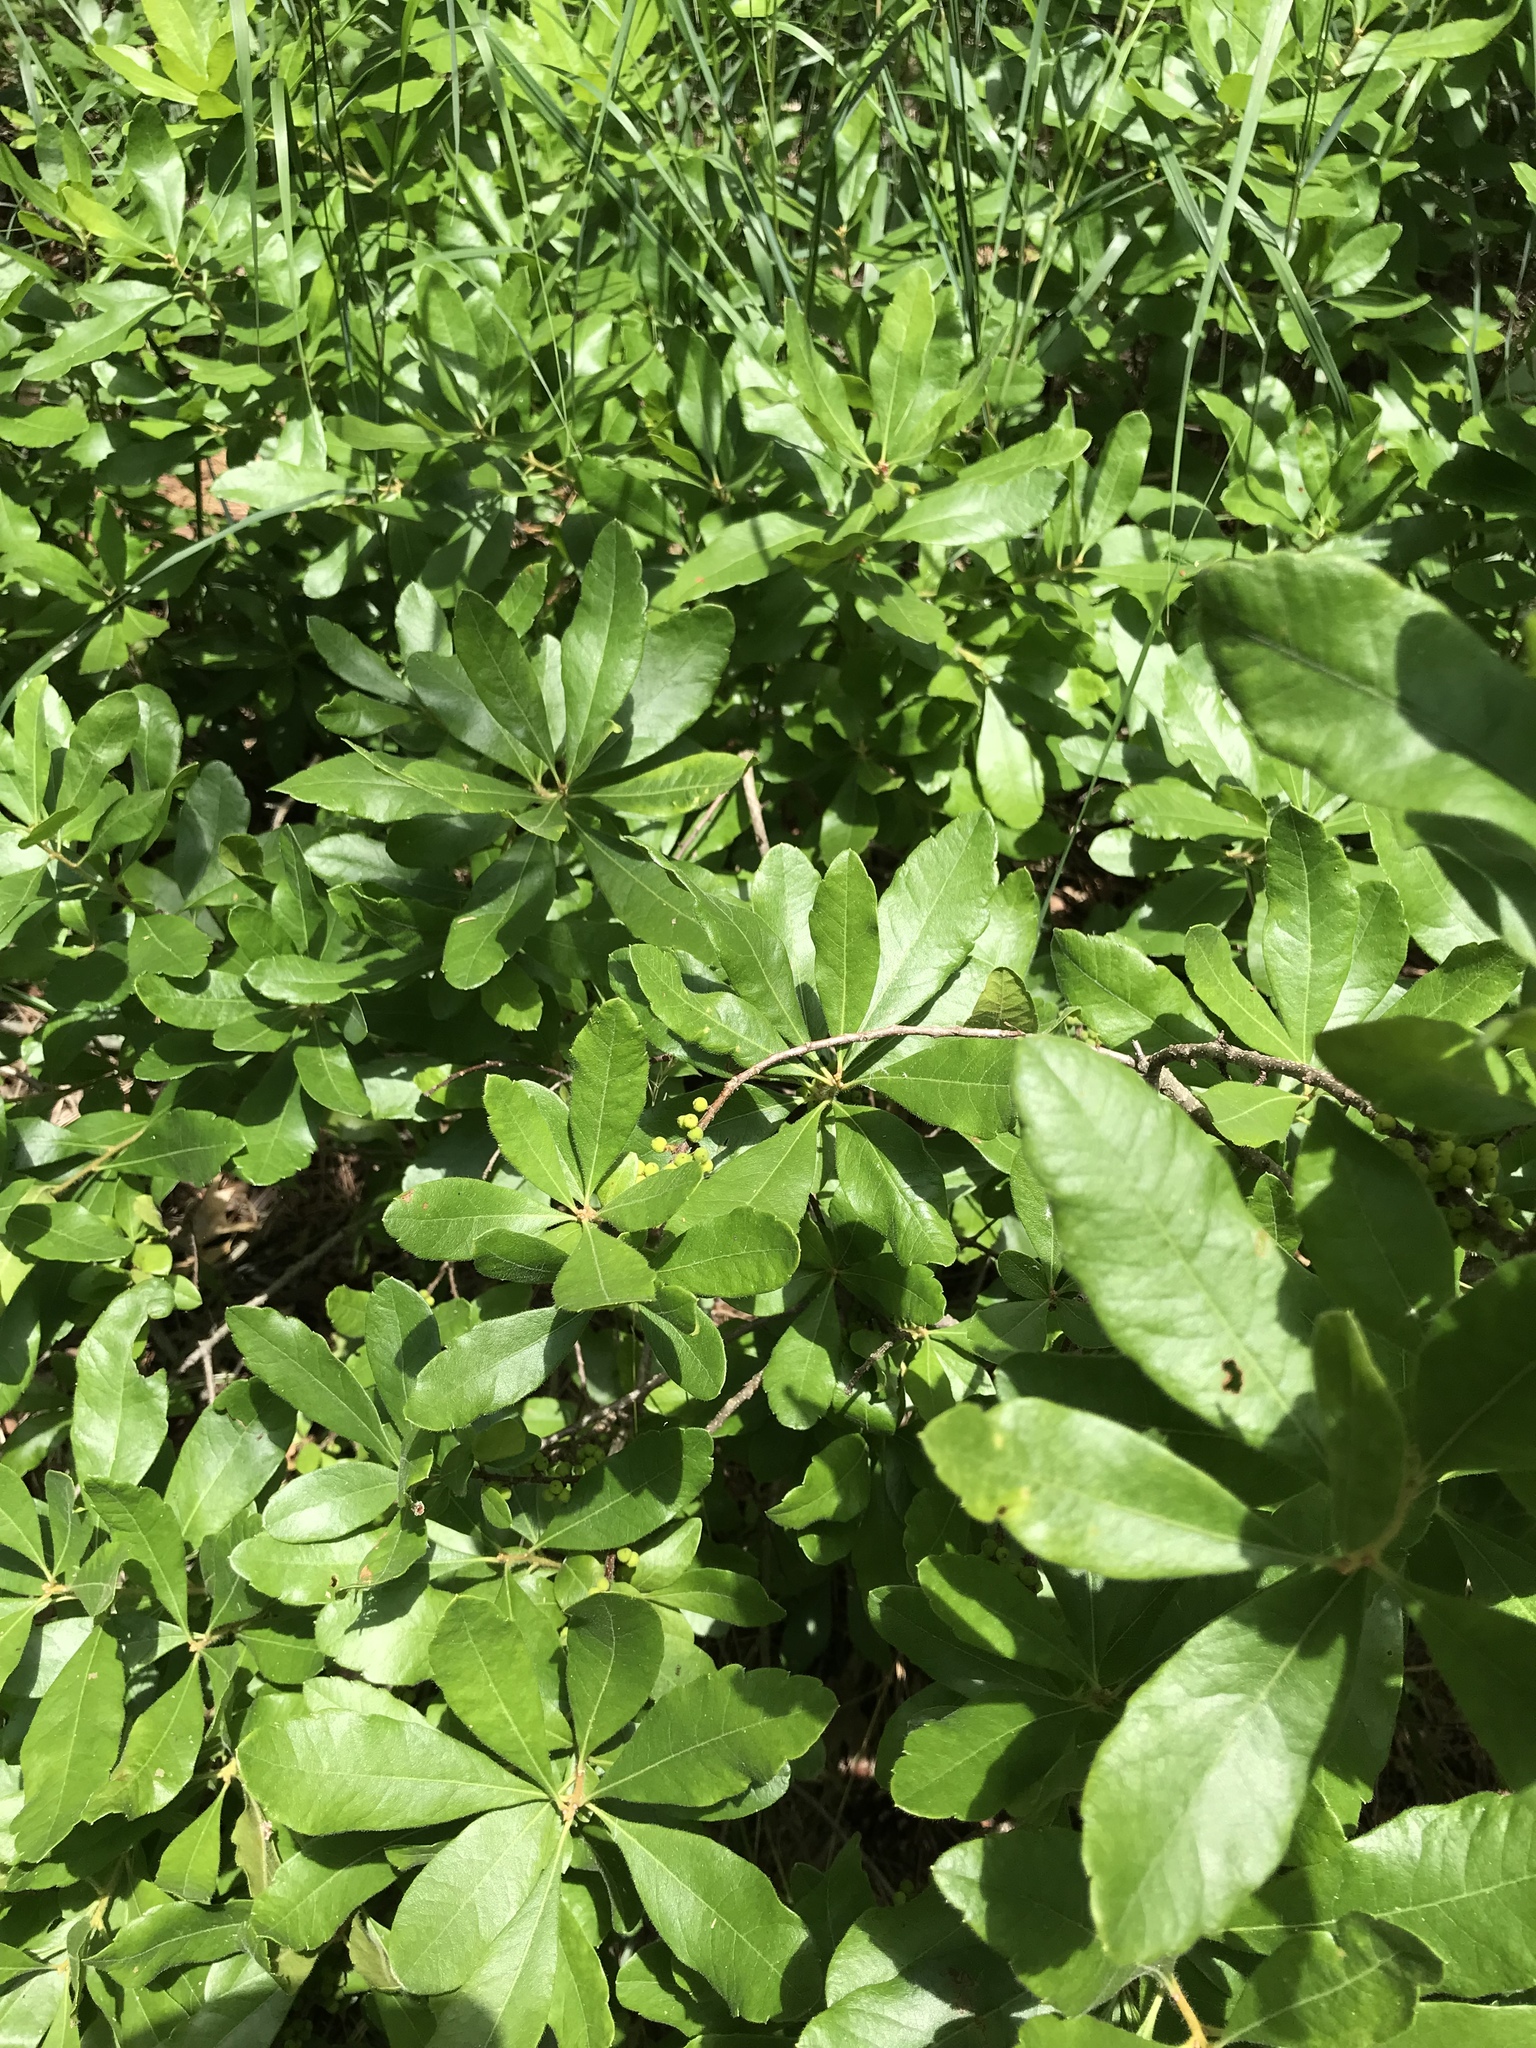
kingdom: Plantae
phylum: Tracheophyta
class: Magnoliopsida
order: Fagales
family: Myricaceae
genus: Morella
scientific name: Morella pensylvanica
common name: Northern bayberry
